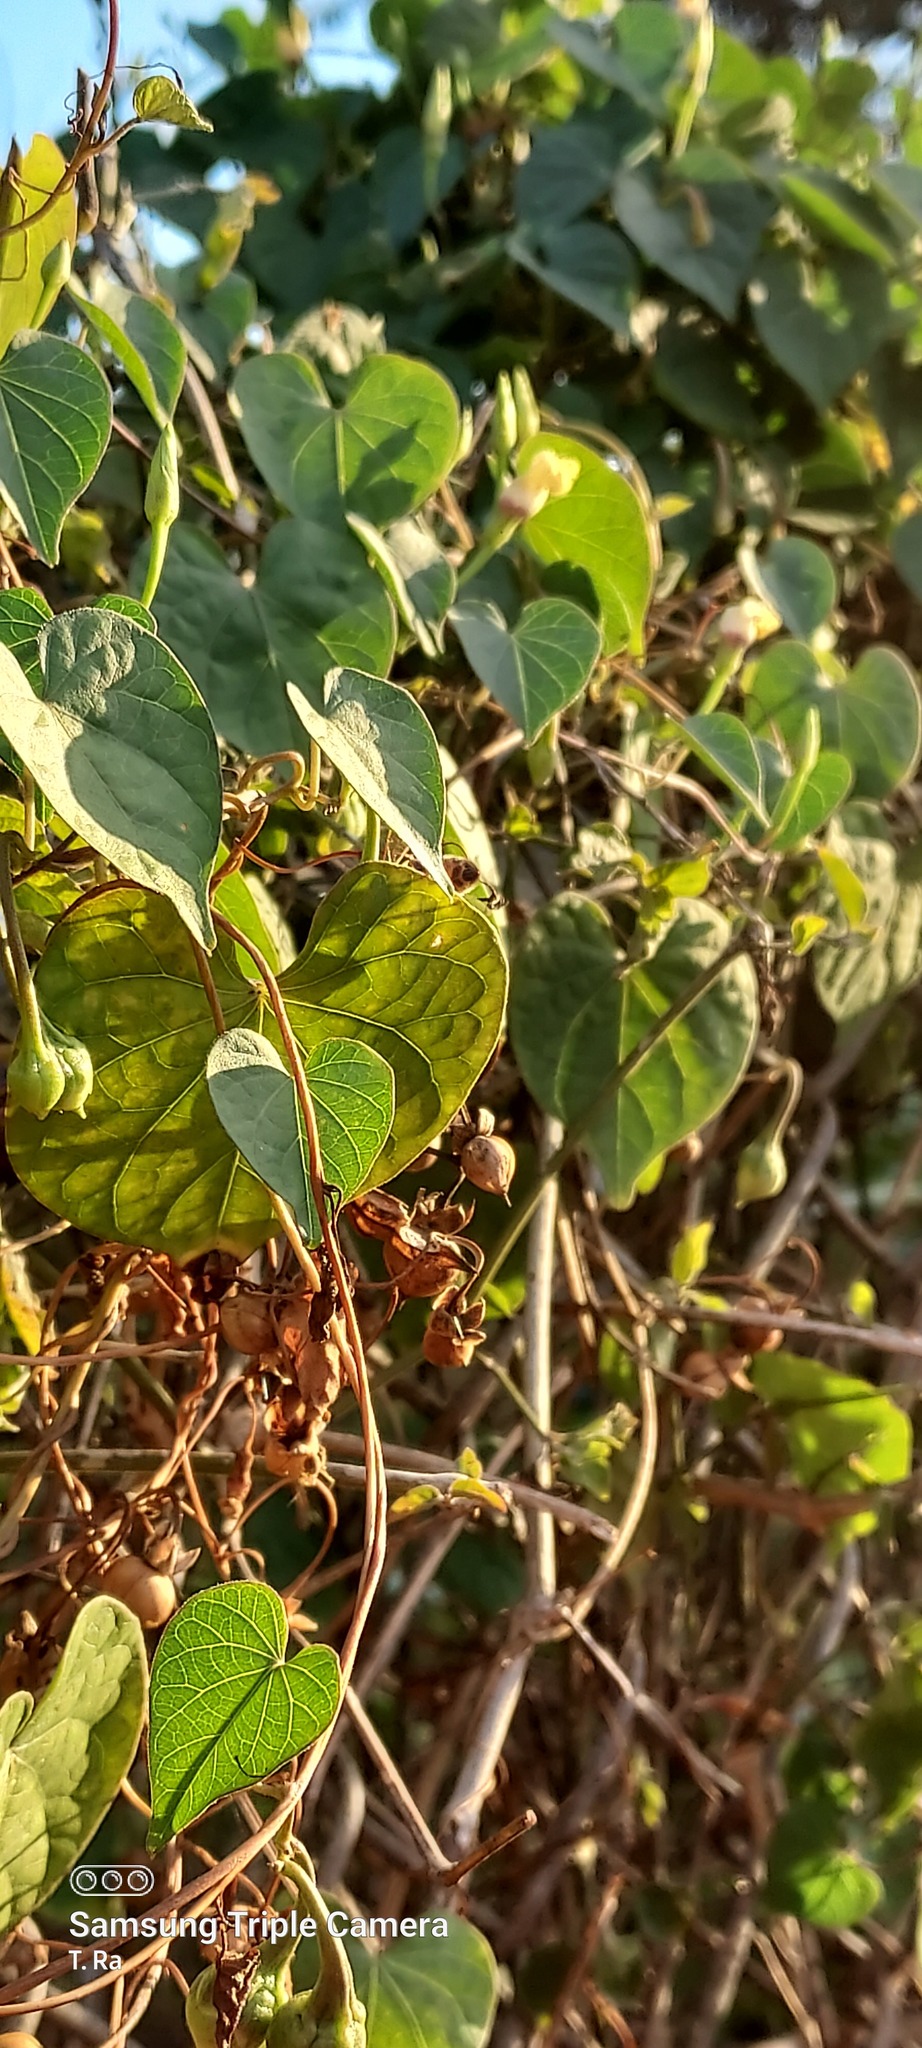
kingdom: Plantae
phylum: Tracheophyta
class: Magnoliopsida
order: Solanales
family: Convolvulaceae
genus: Ipomoea
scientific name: Ipomoea obscura
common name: Obscure morning-glory
